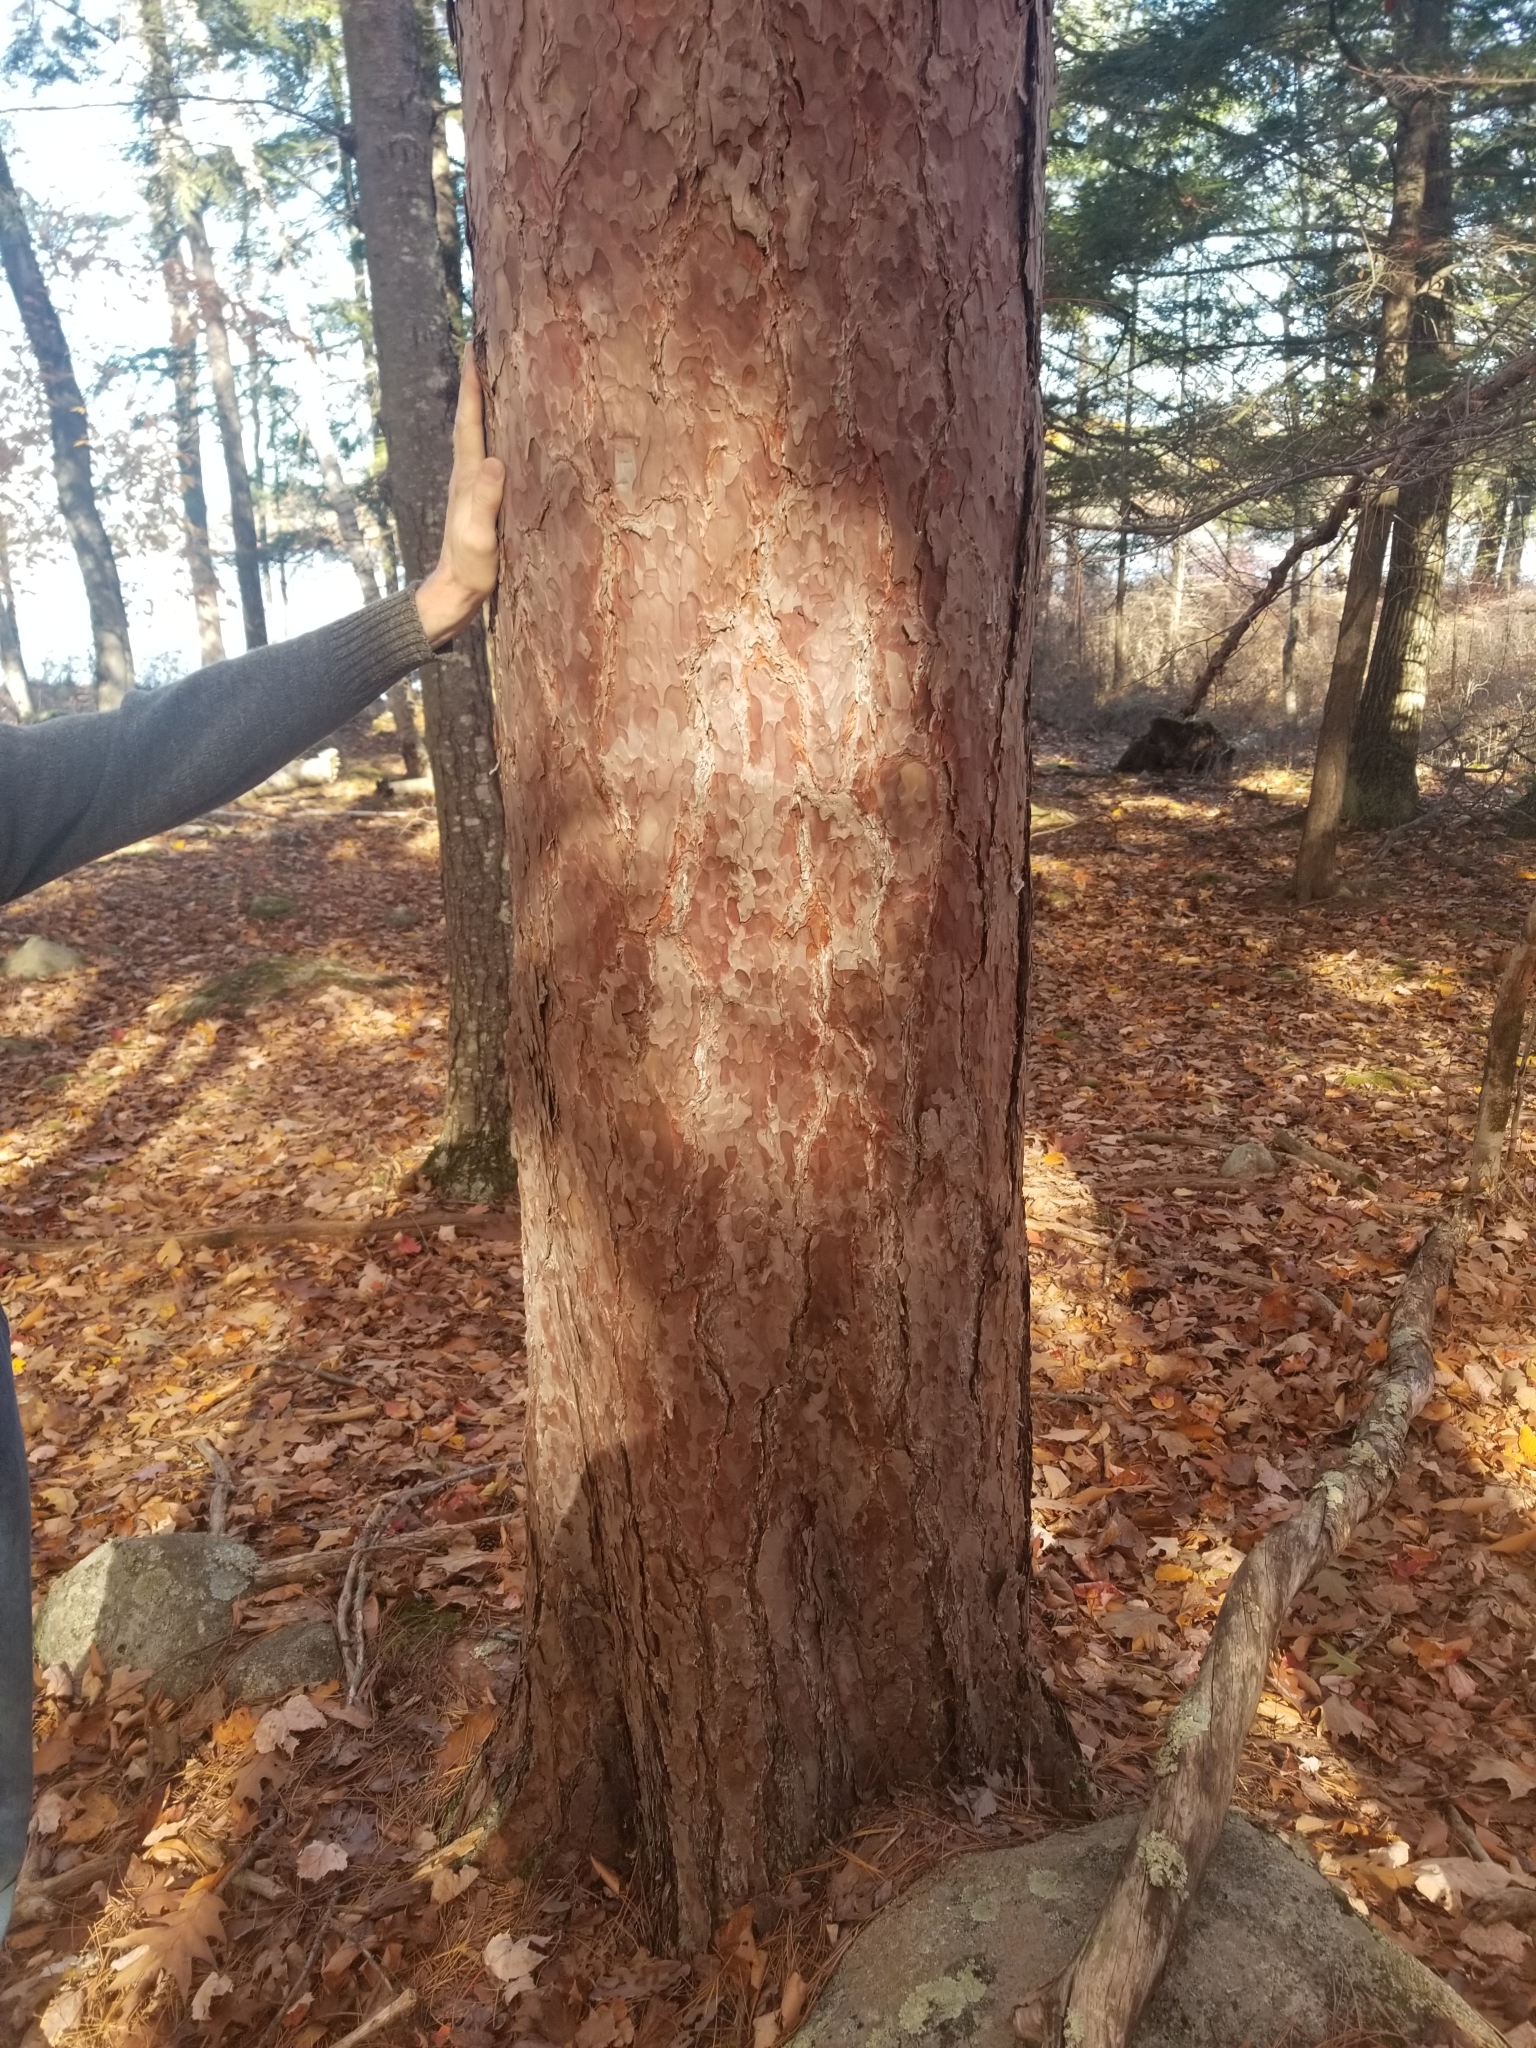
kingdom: Plantae
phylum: Tracheophyta
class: Pinopsida
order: Pinales
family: Pinaceae
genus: Pinus
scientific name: Pinus resinosa
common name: Norway pine
